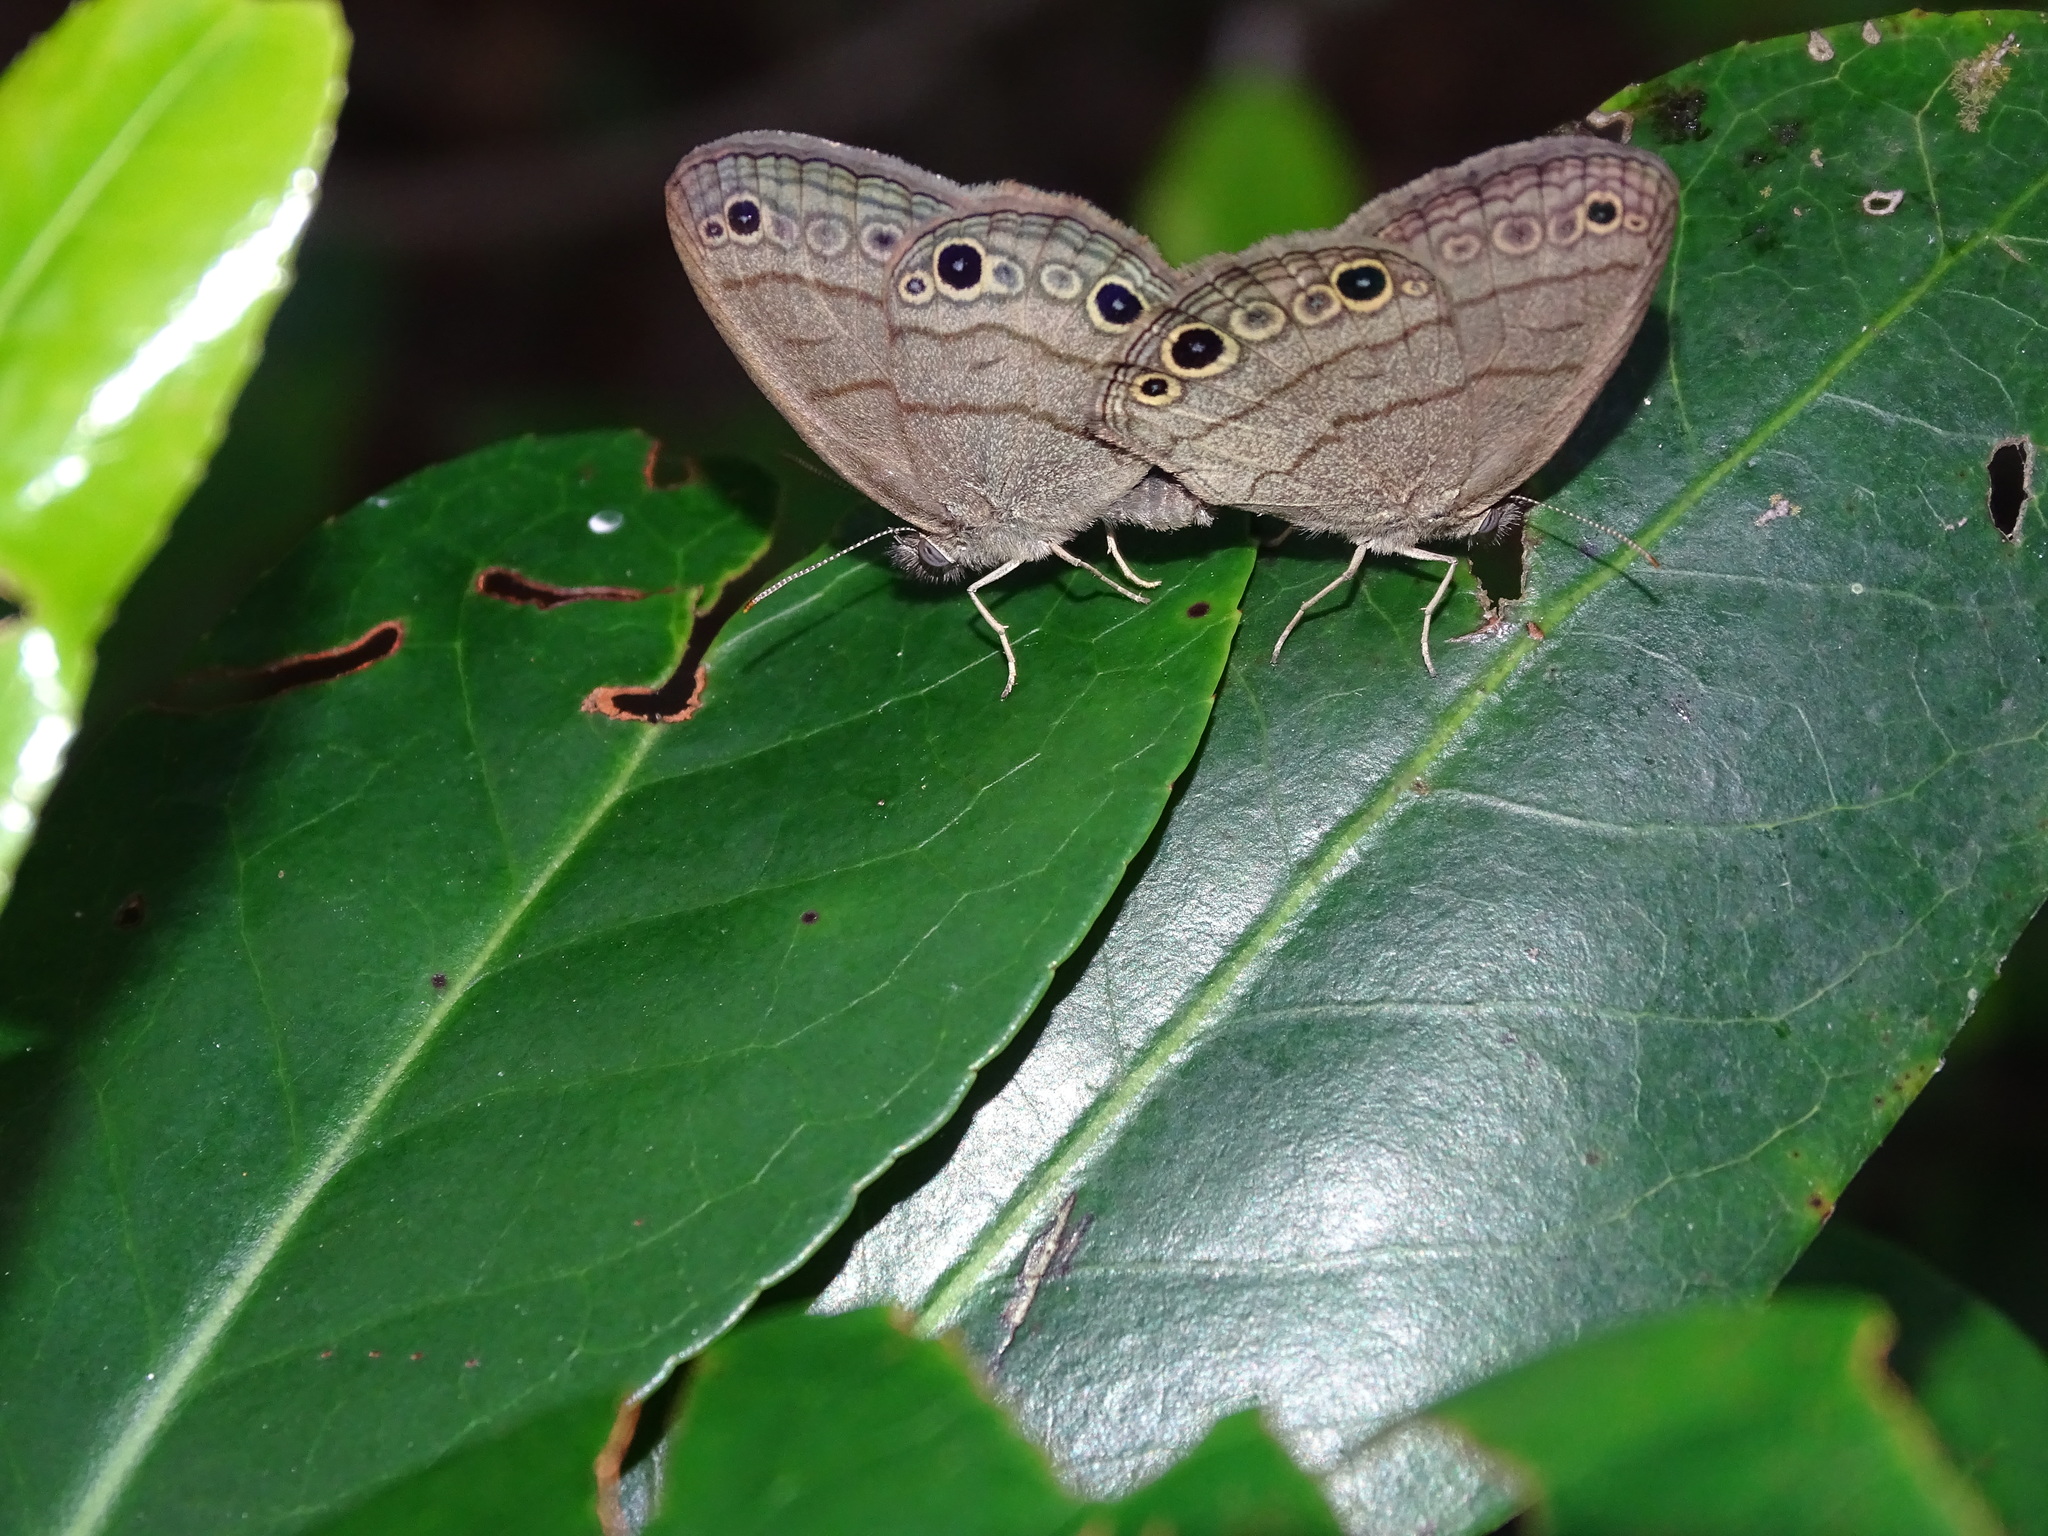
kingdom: Animalia
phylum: Arthropoda
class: Insecta
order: Lepidoptera
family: Nymphalidae
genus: Hermeuptychia
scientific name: Hermeuptychia hermes
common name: Hermes satyr
